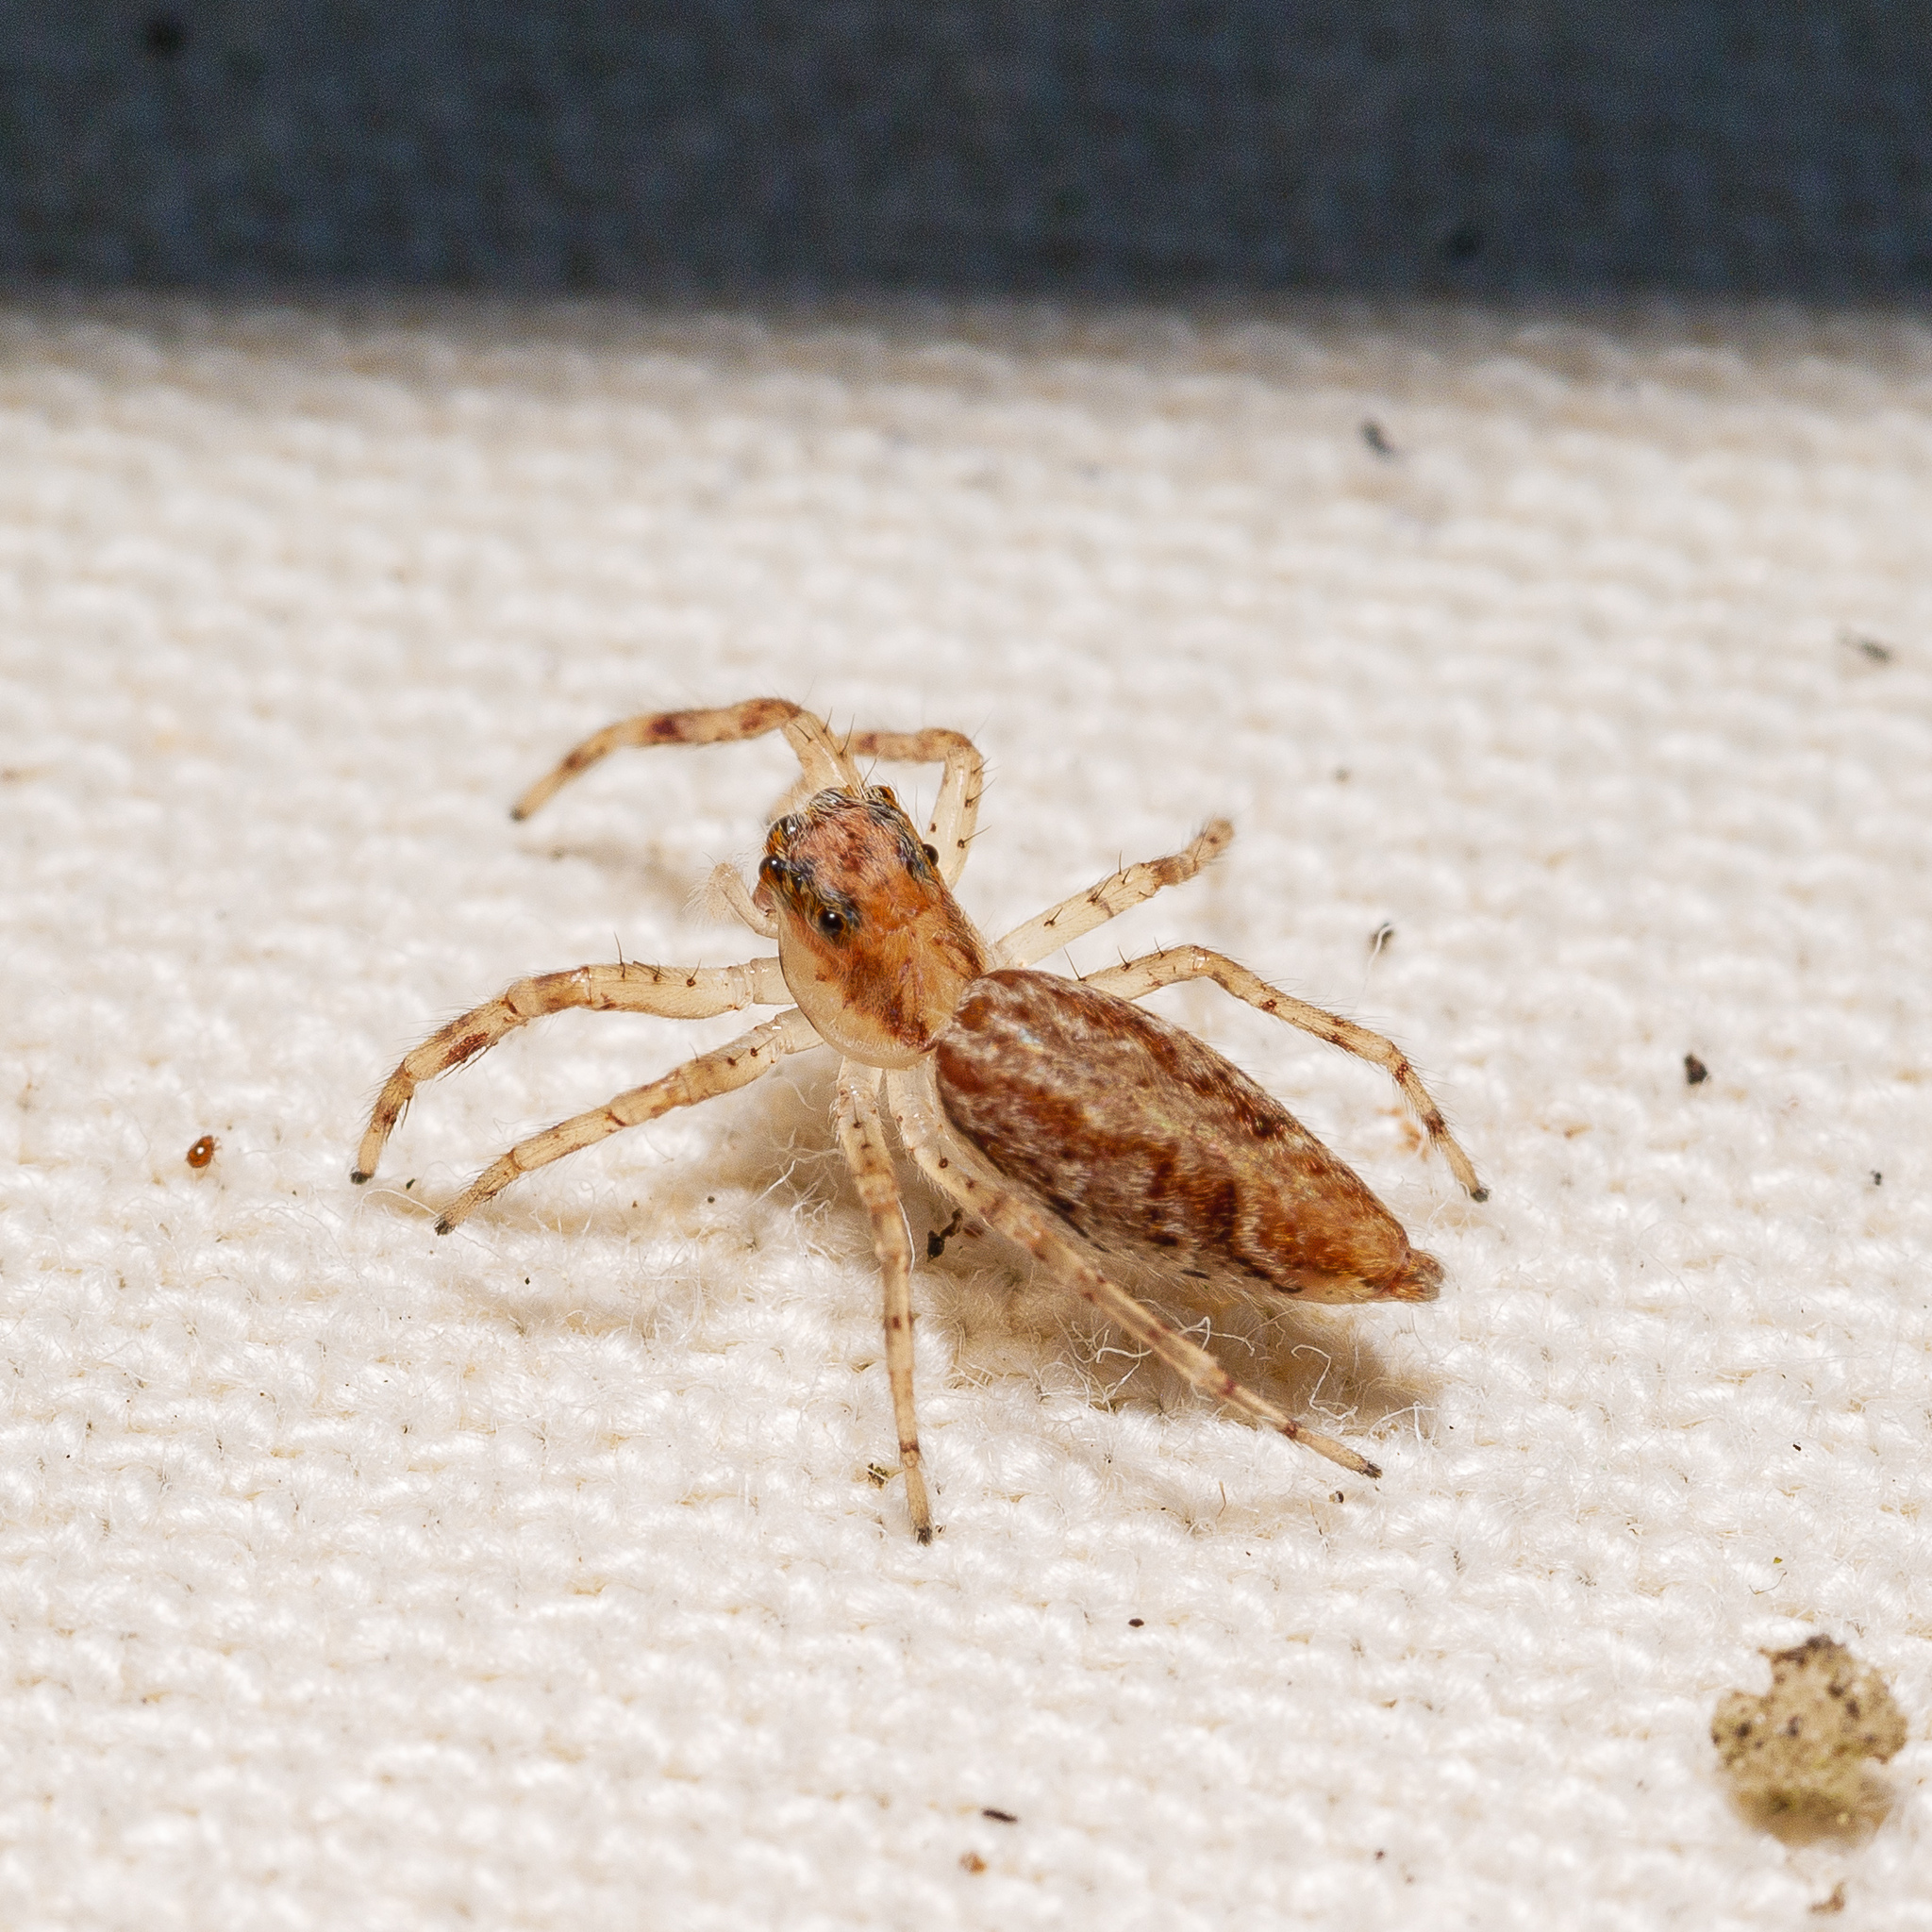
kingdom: Animalia
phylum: Arthropoda
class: Arachnida
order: Araneae
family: Salticidae
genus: Helpis
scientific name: Helpis minitabunda
